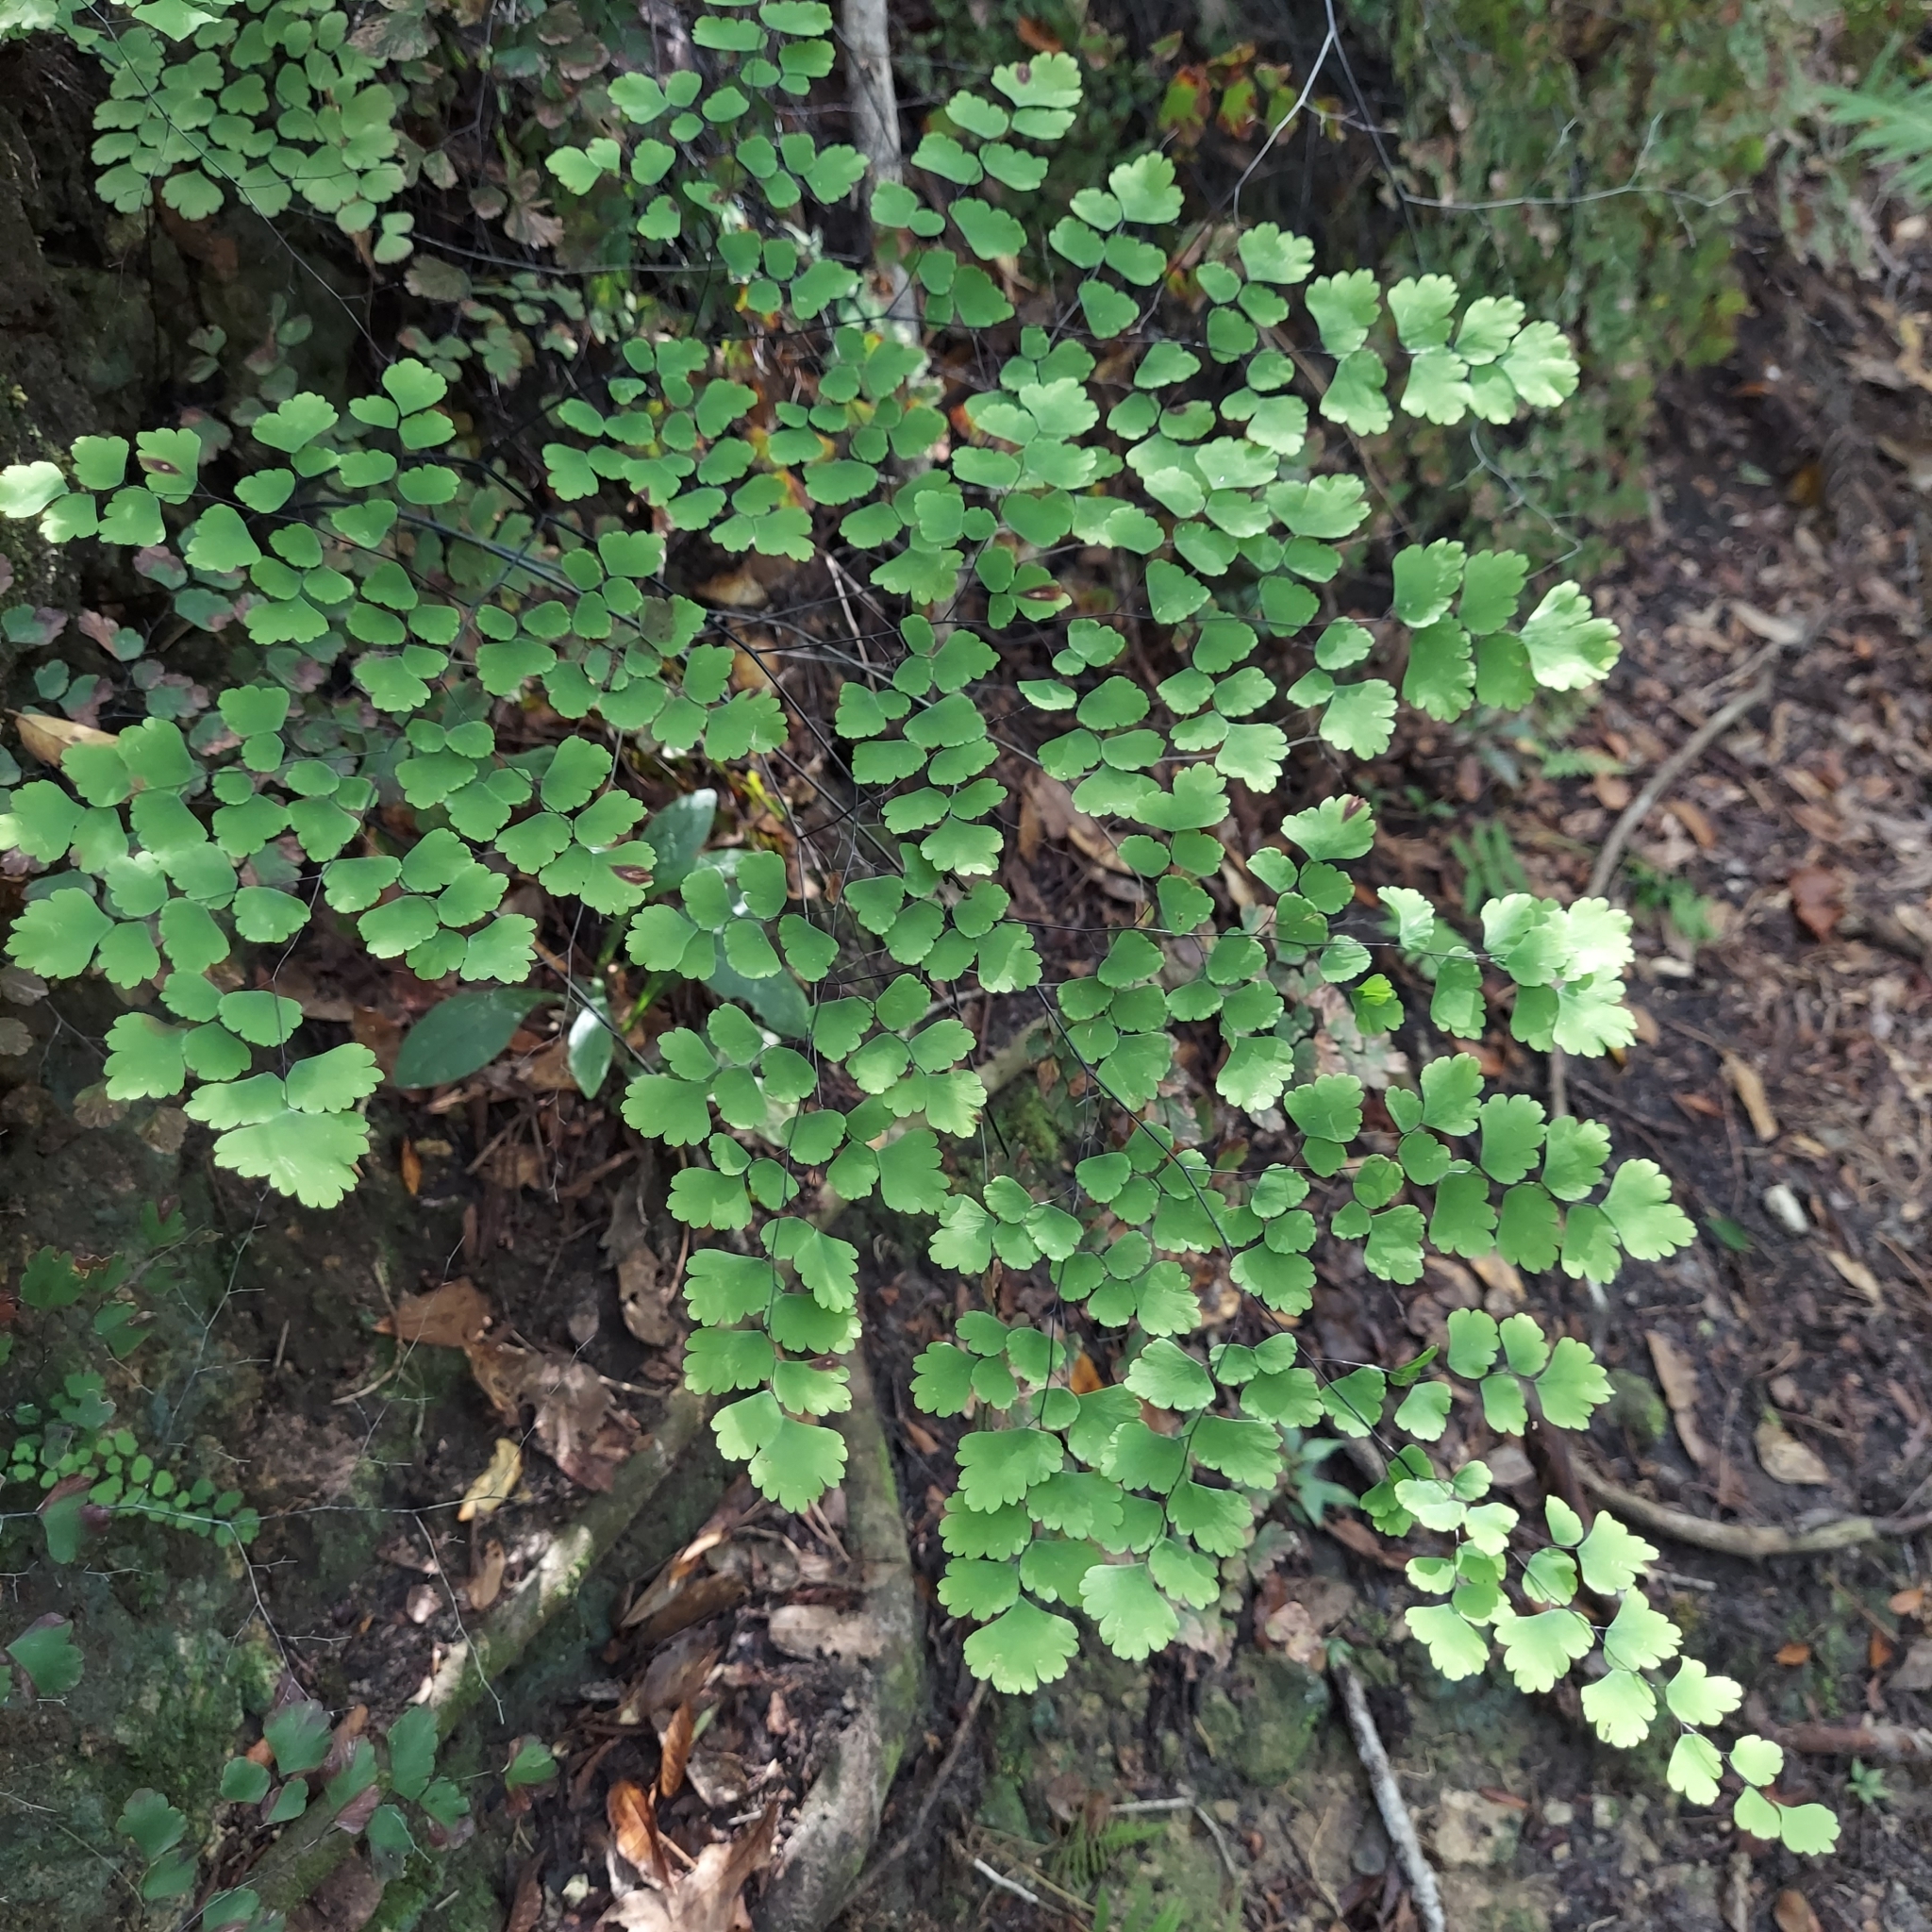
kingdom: Plantae
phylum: Tracheophyta
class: Polypodiopsida
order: Polypodiales
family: Pteridaceae
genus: Adiantum
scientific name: Adiantum tenerum
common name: Fan maidenhair
